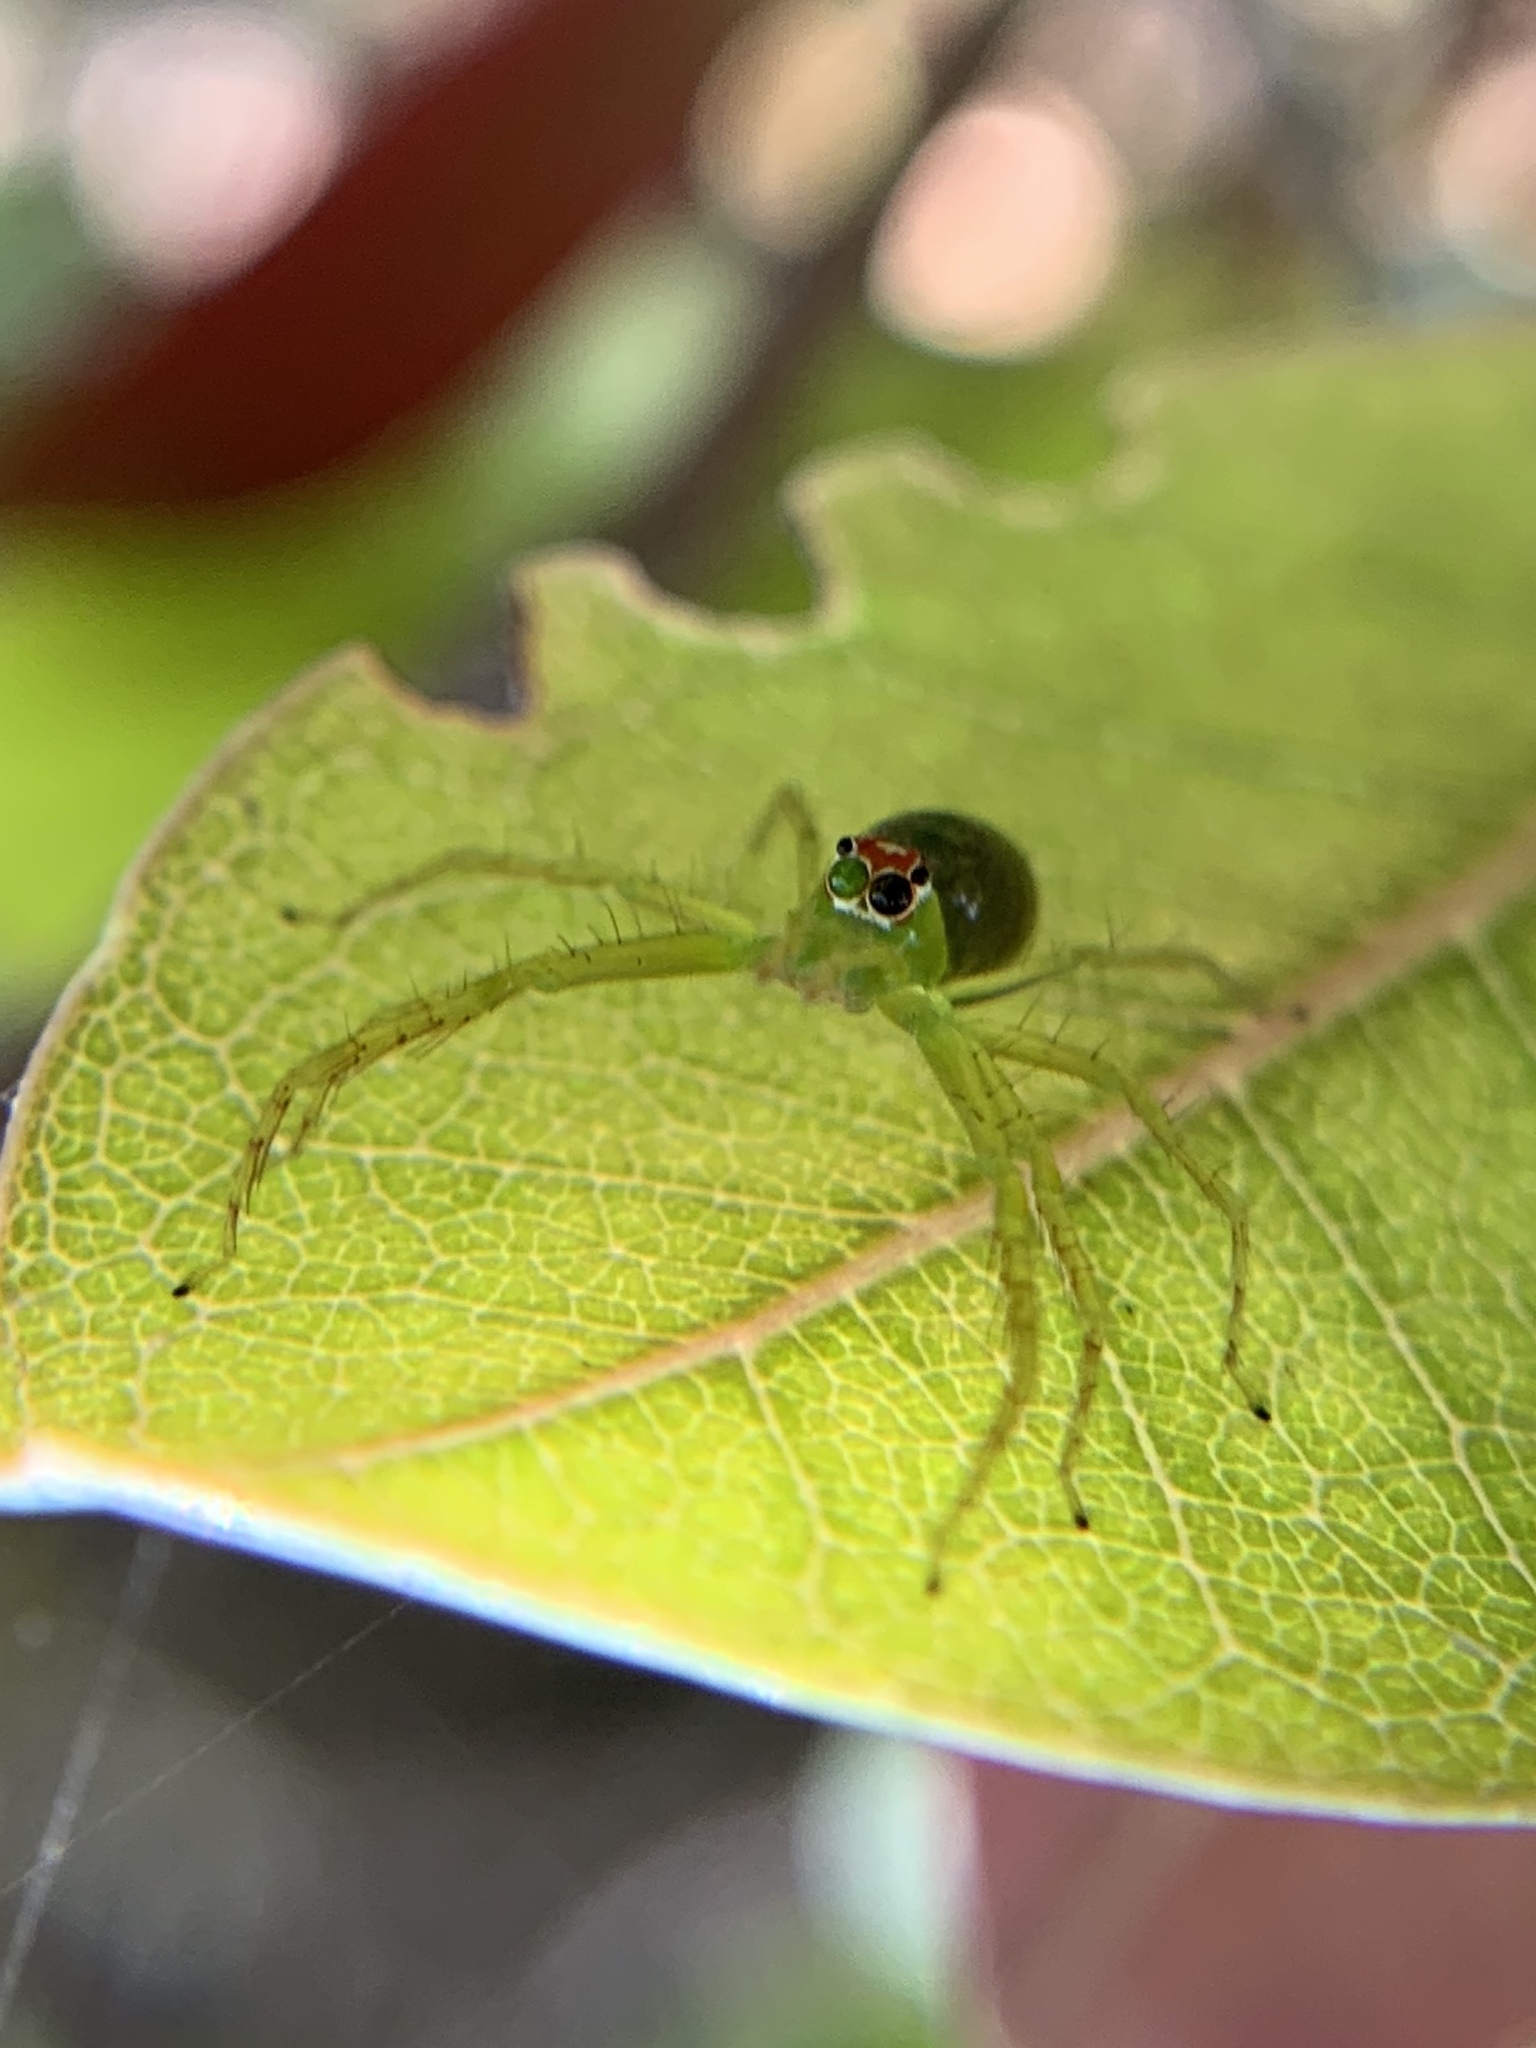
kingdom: Animalia
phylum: Arthropoda
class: Arachnida
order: Araneae
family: Salticidae
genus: Lyssomanes
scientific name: Lyssomanes viridis
